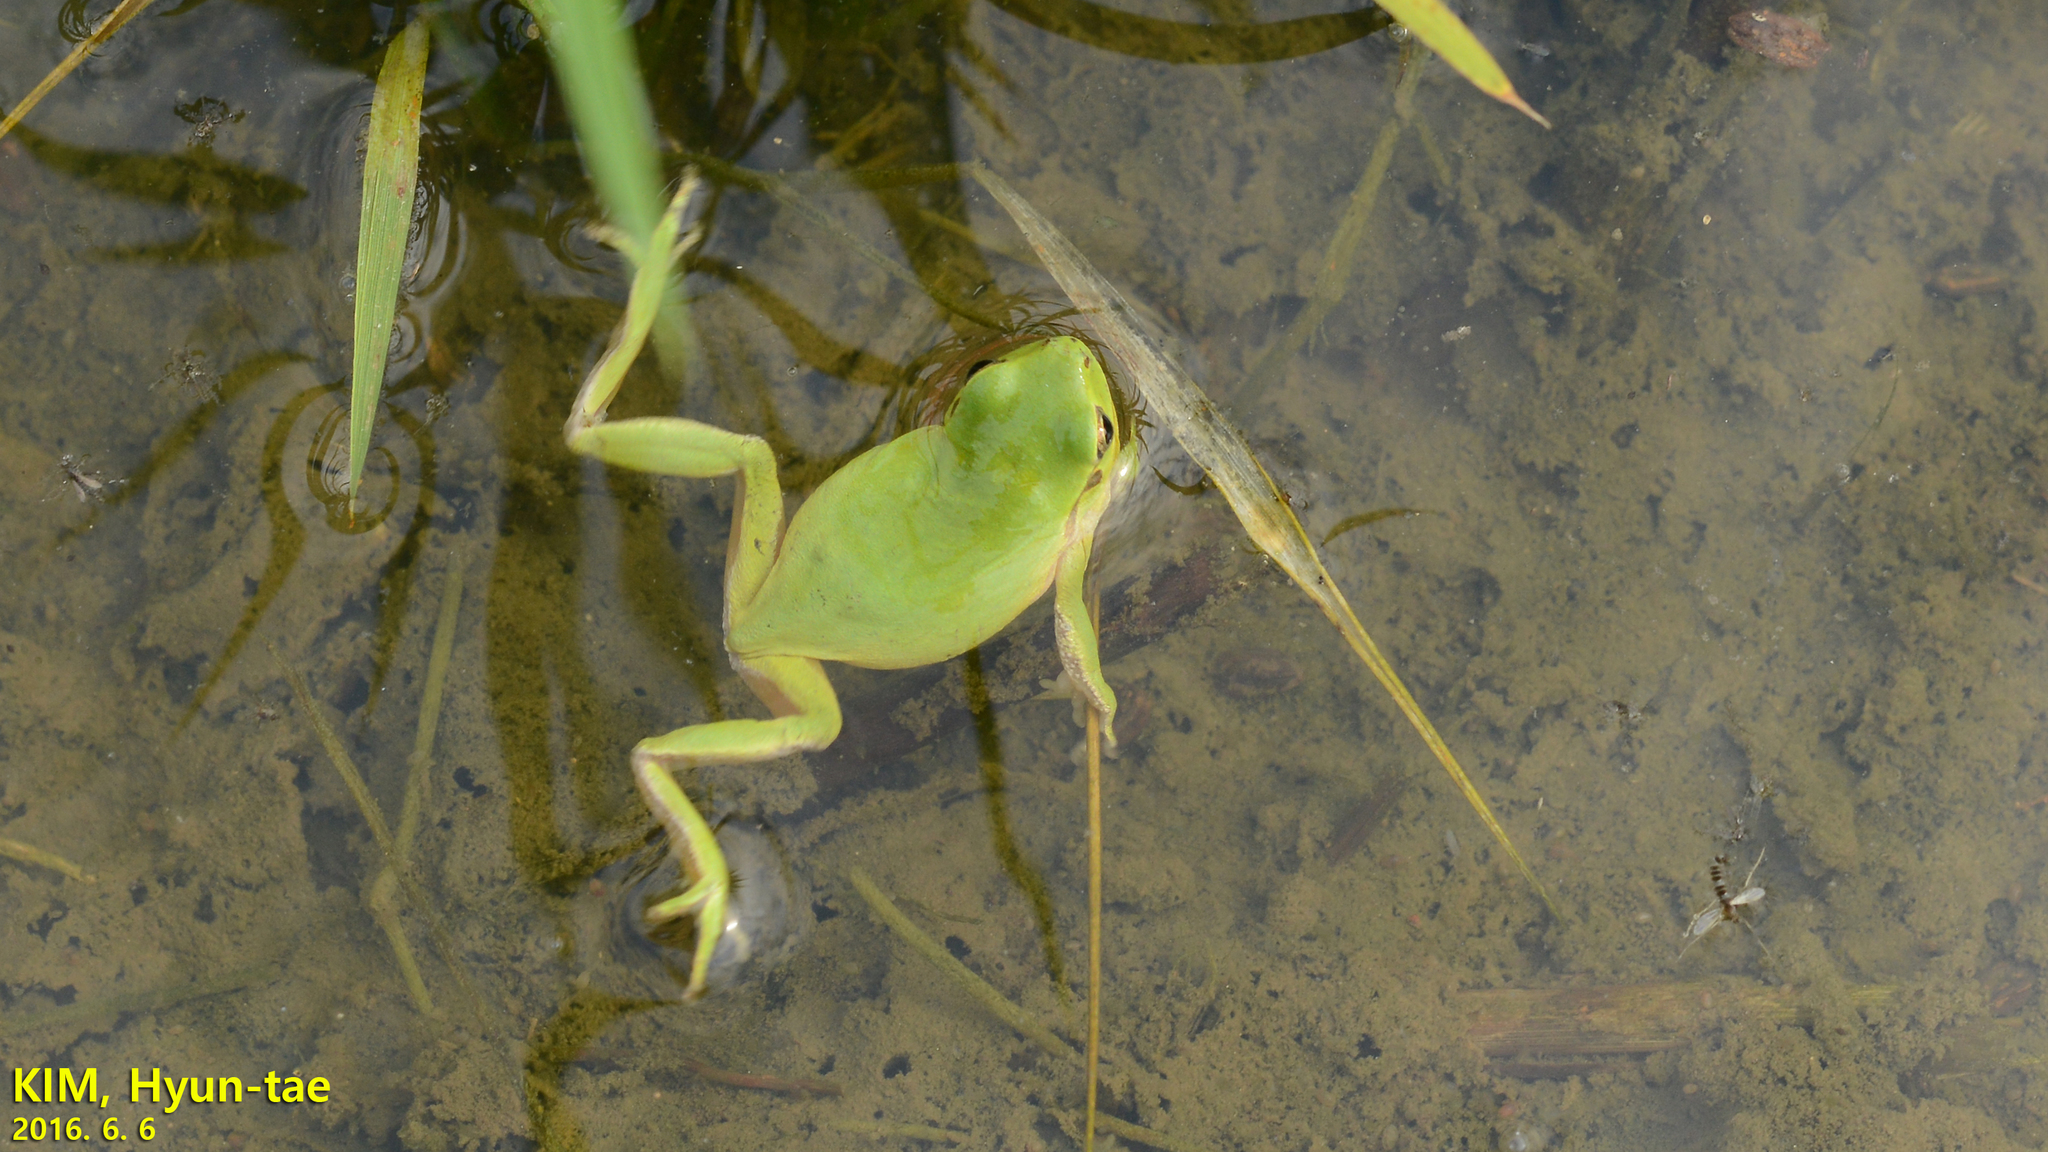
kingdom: Animalia
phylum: Chordata
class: Amphibia
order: Anura
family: Hylidae
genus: Dryophytes
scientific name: Dryophytes immaculatus
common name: North china treefrog
